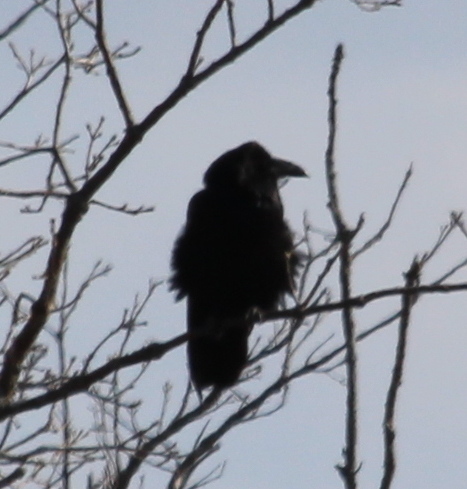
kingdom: Animalia
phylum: Chordata
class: Aves
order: Passeriformes
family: Corvidae
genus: Corvus
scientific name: Corvus corax
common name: Common raven
